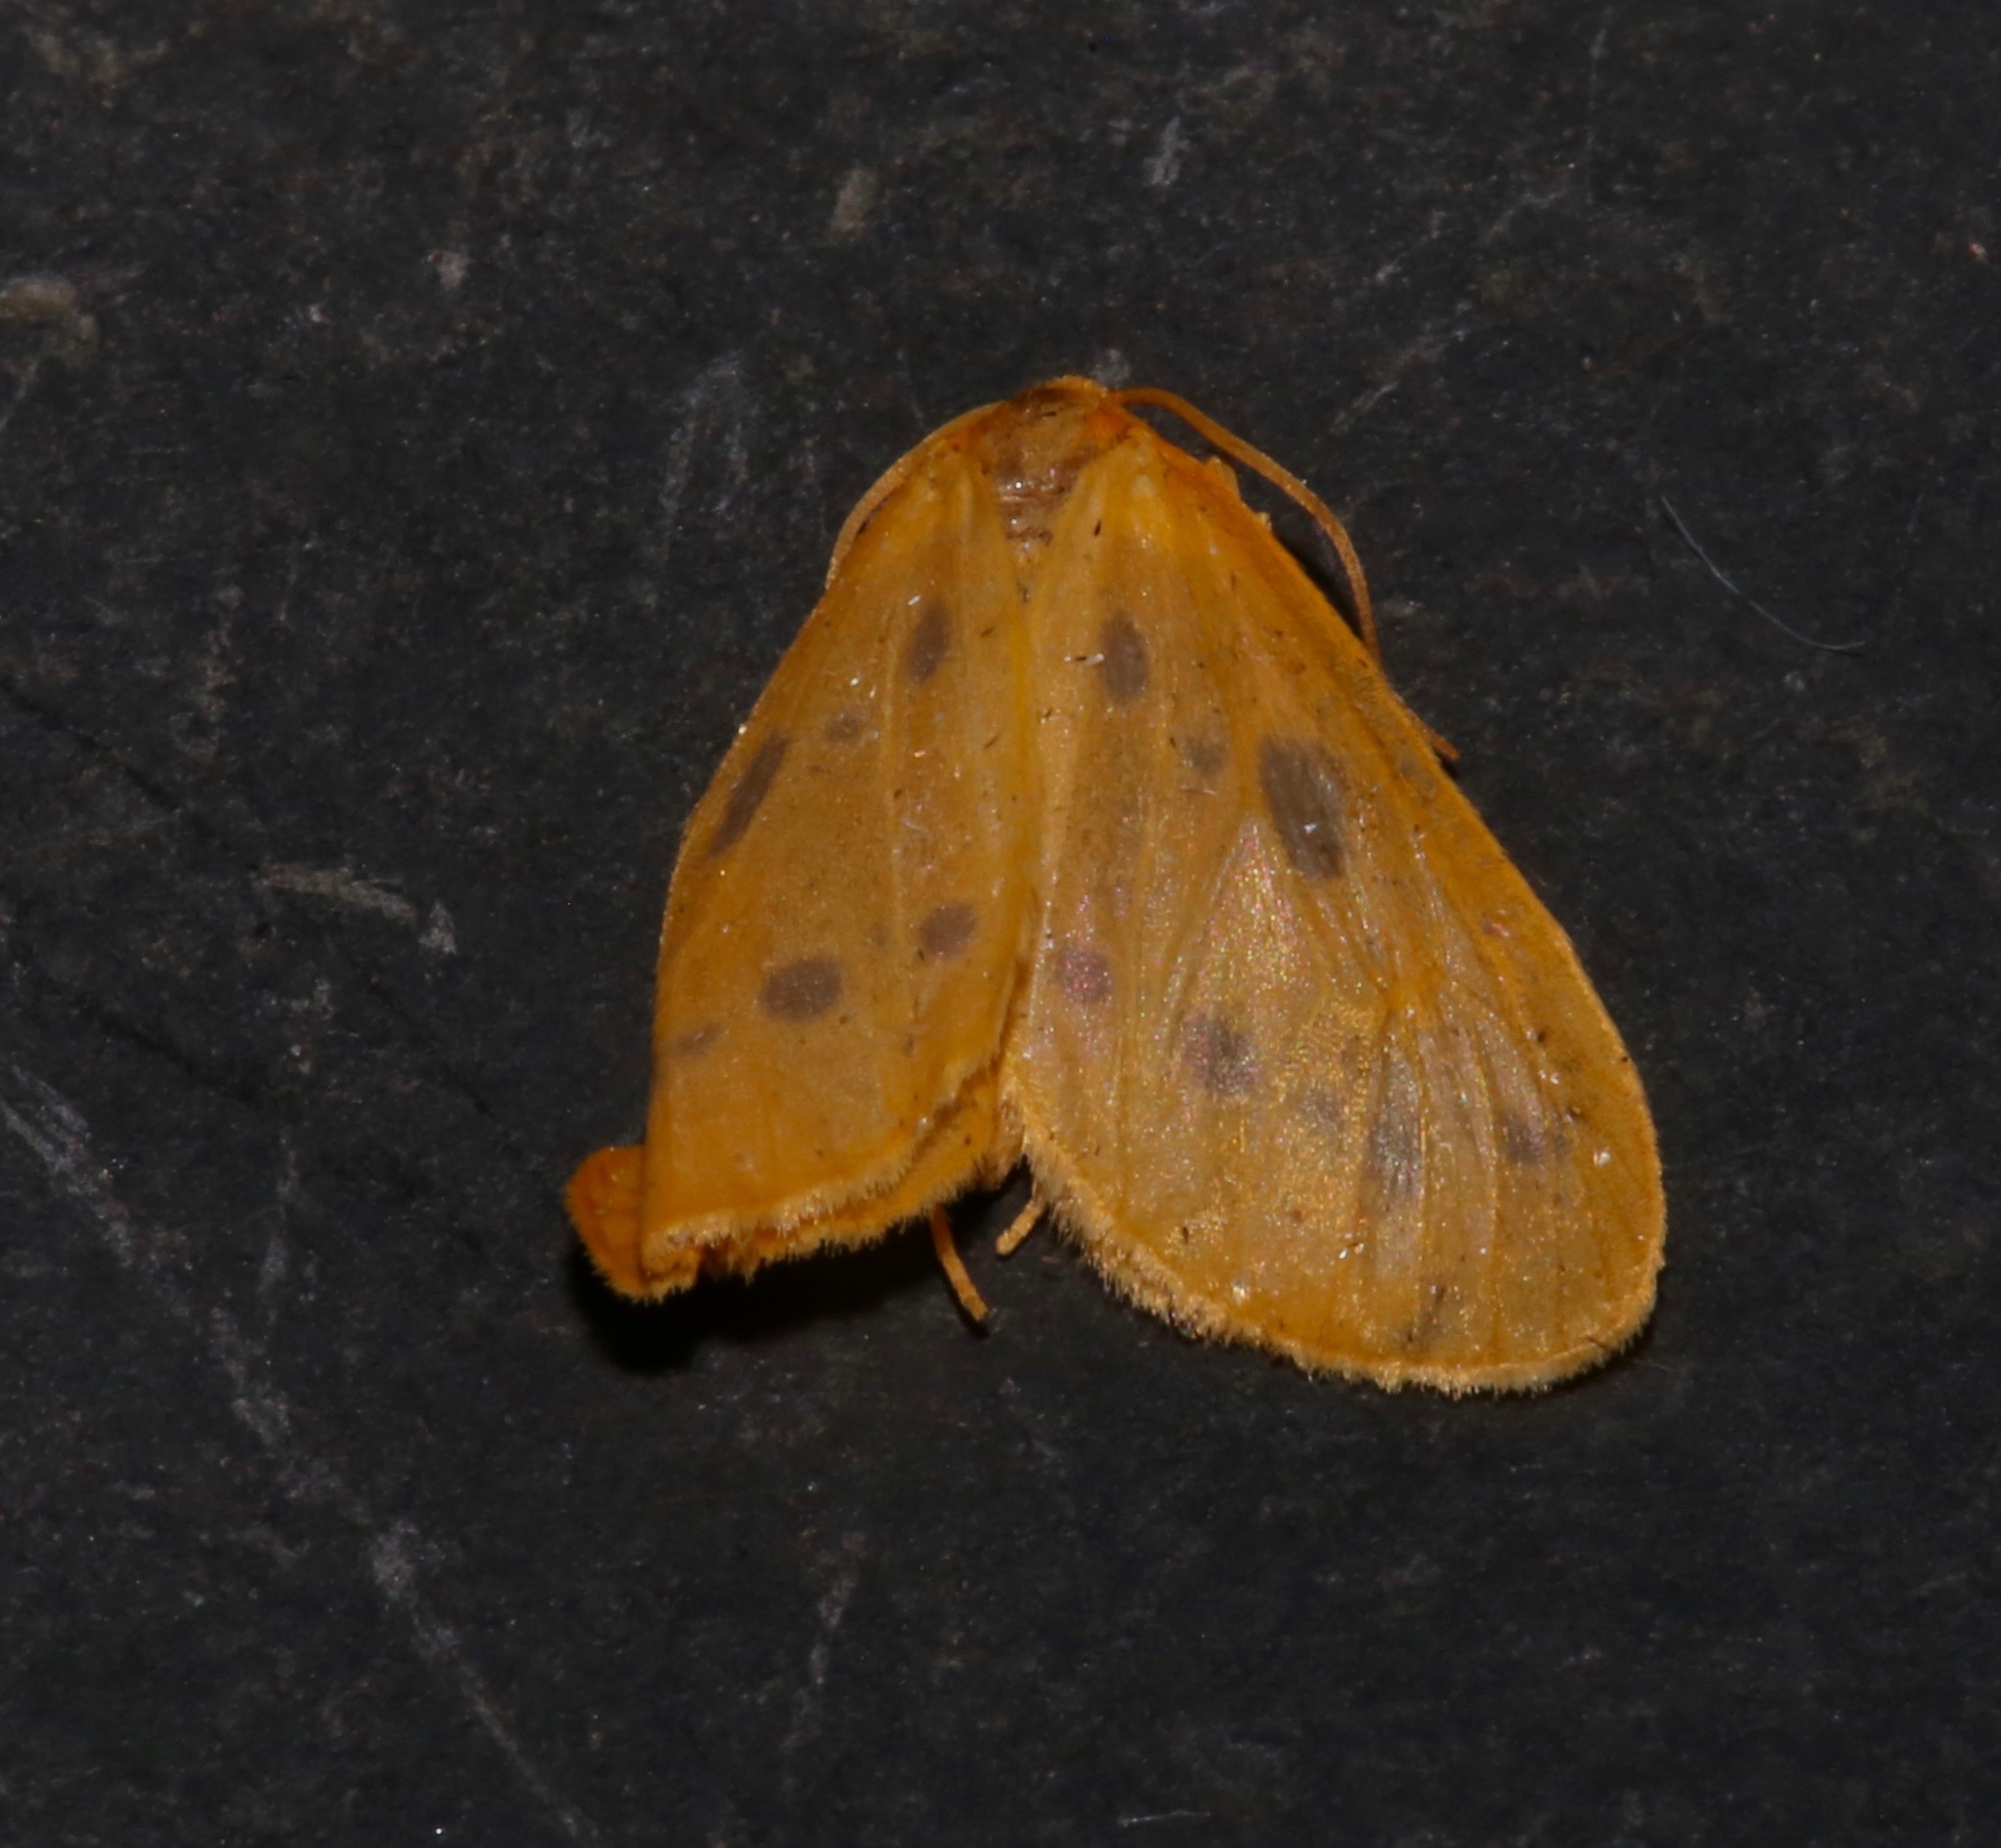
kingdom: Animalia
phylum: Arthropoda
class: Insecta
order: Lepidoptera
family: Geometridae
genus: Eubaphe
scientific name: Eubaphe meridiana
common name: Little beggar
